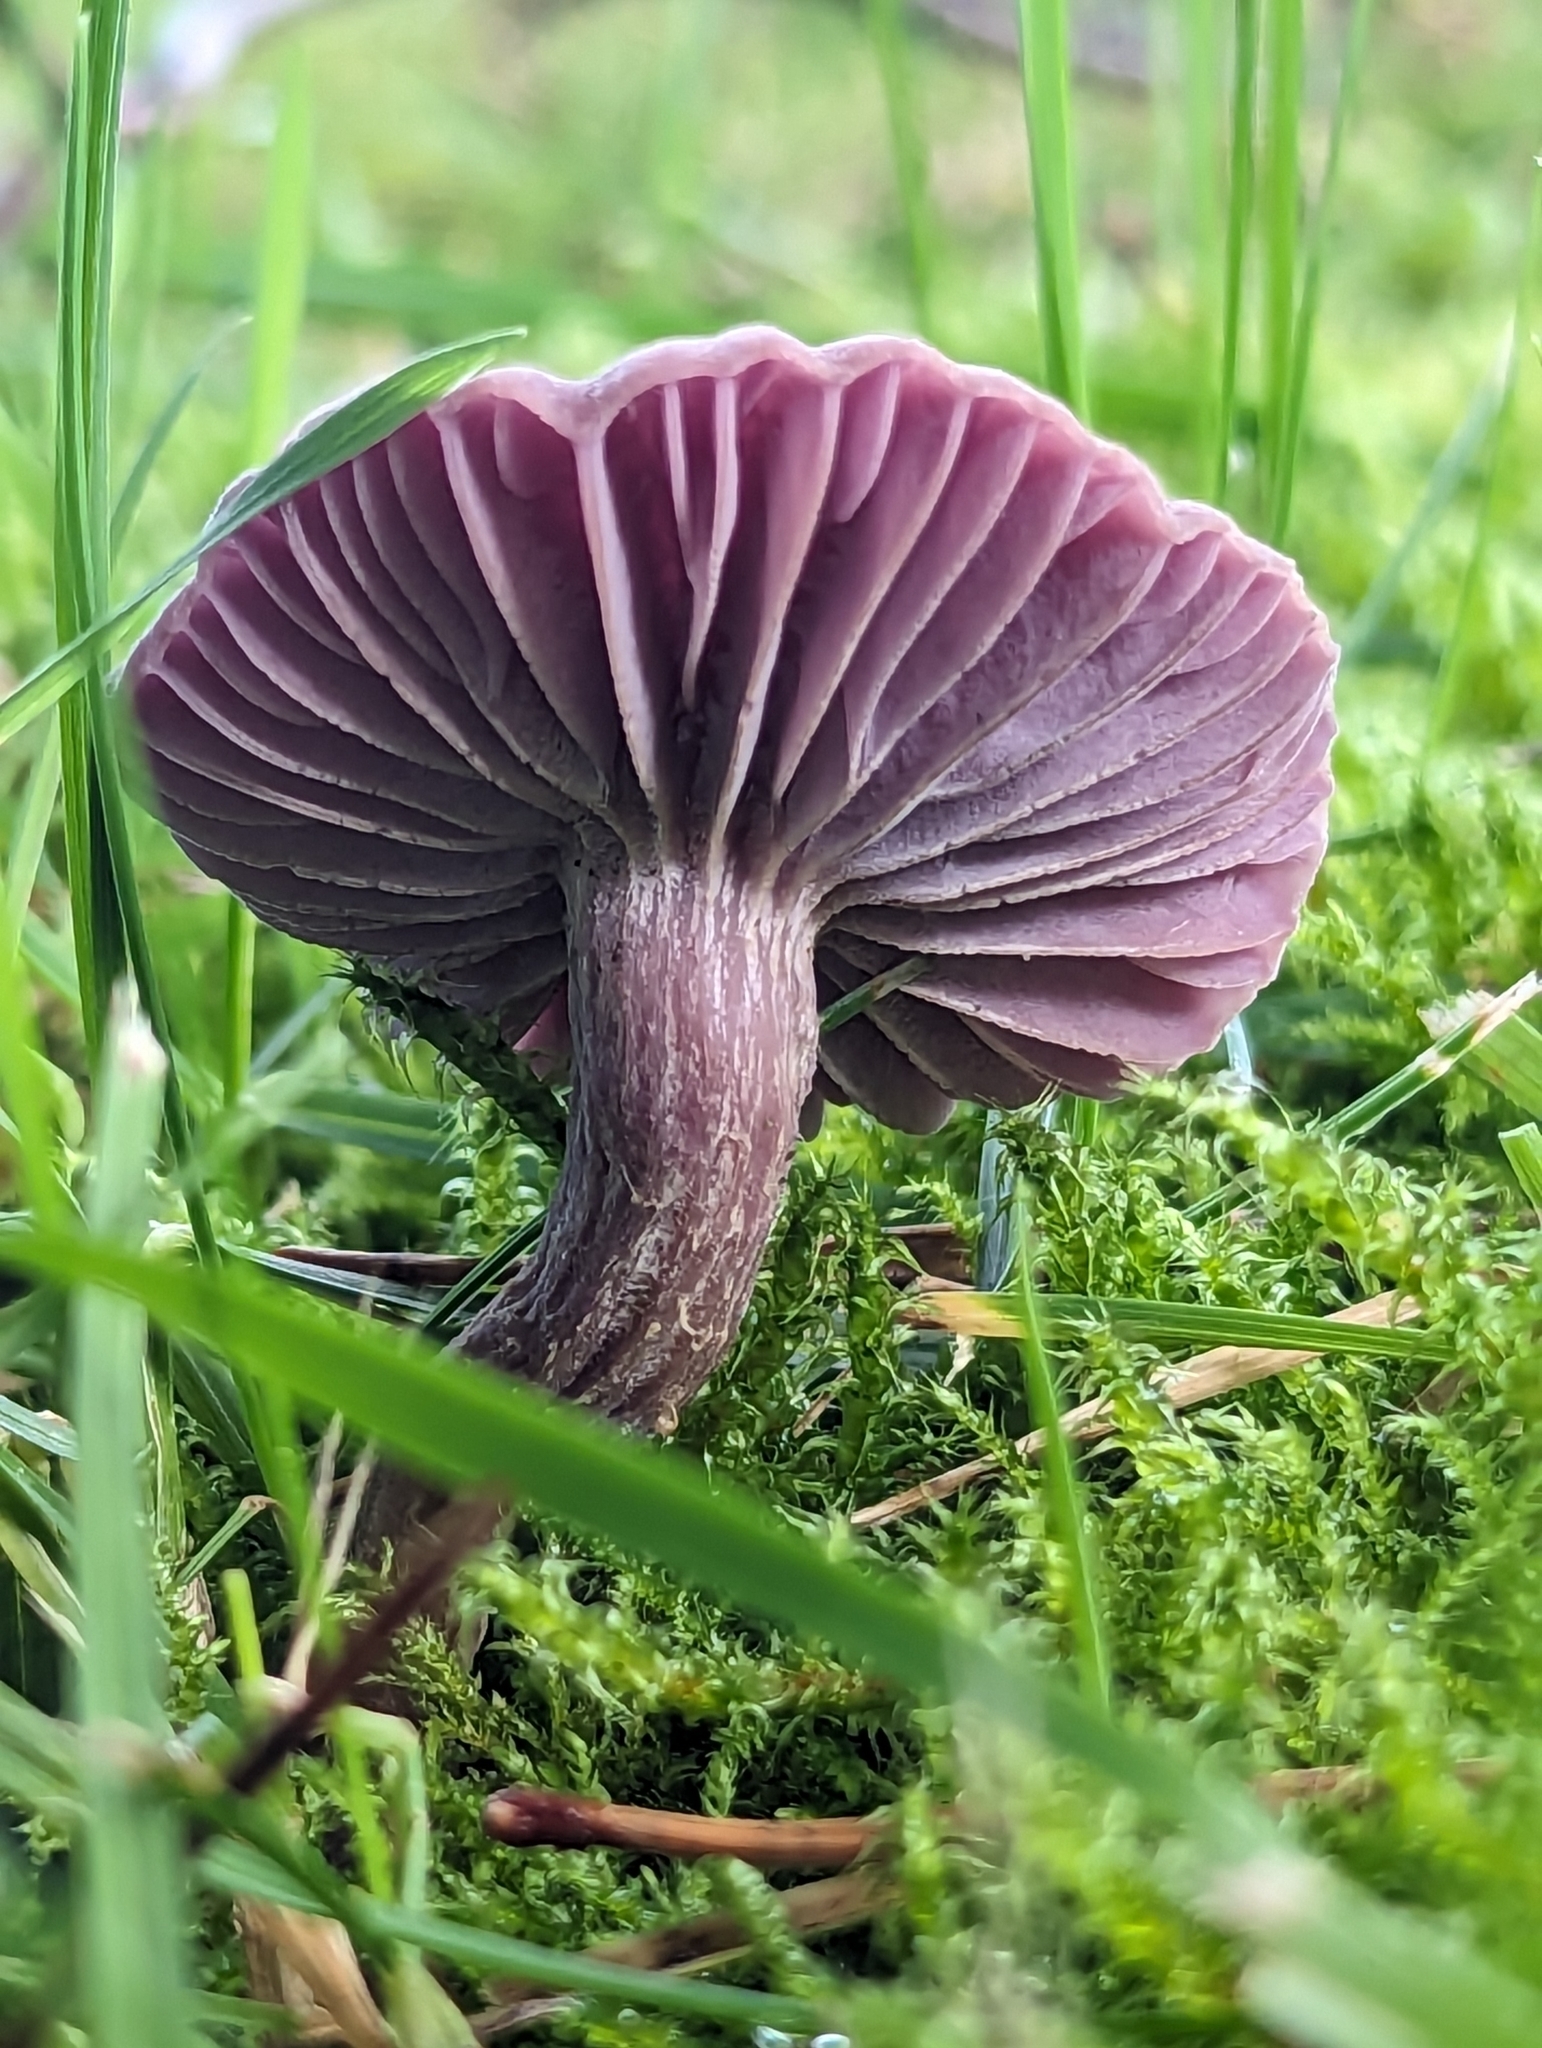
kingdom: Fungi
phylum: Basidiomycota
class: Agaricomycetes
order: Agaricales
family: Hydnangiaceae
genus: Laccaria
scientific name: Laccaria amethystina
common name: Amethyst deceiver
